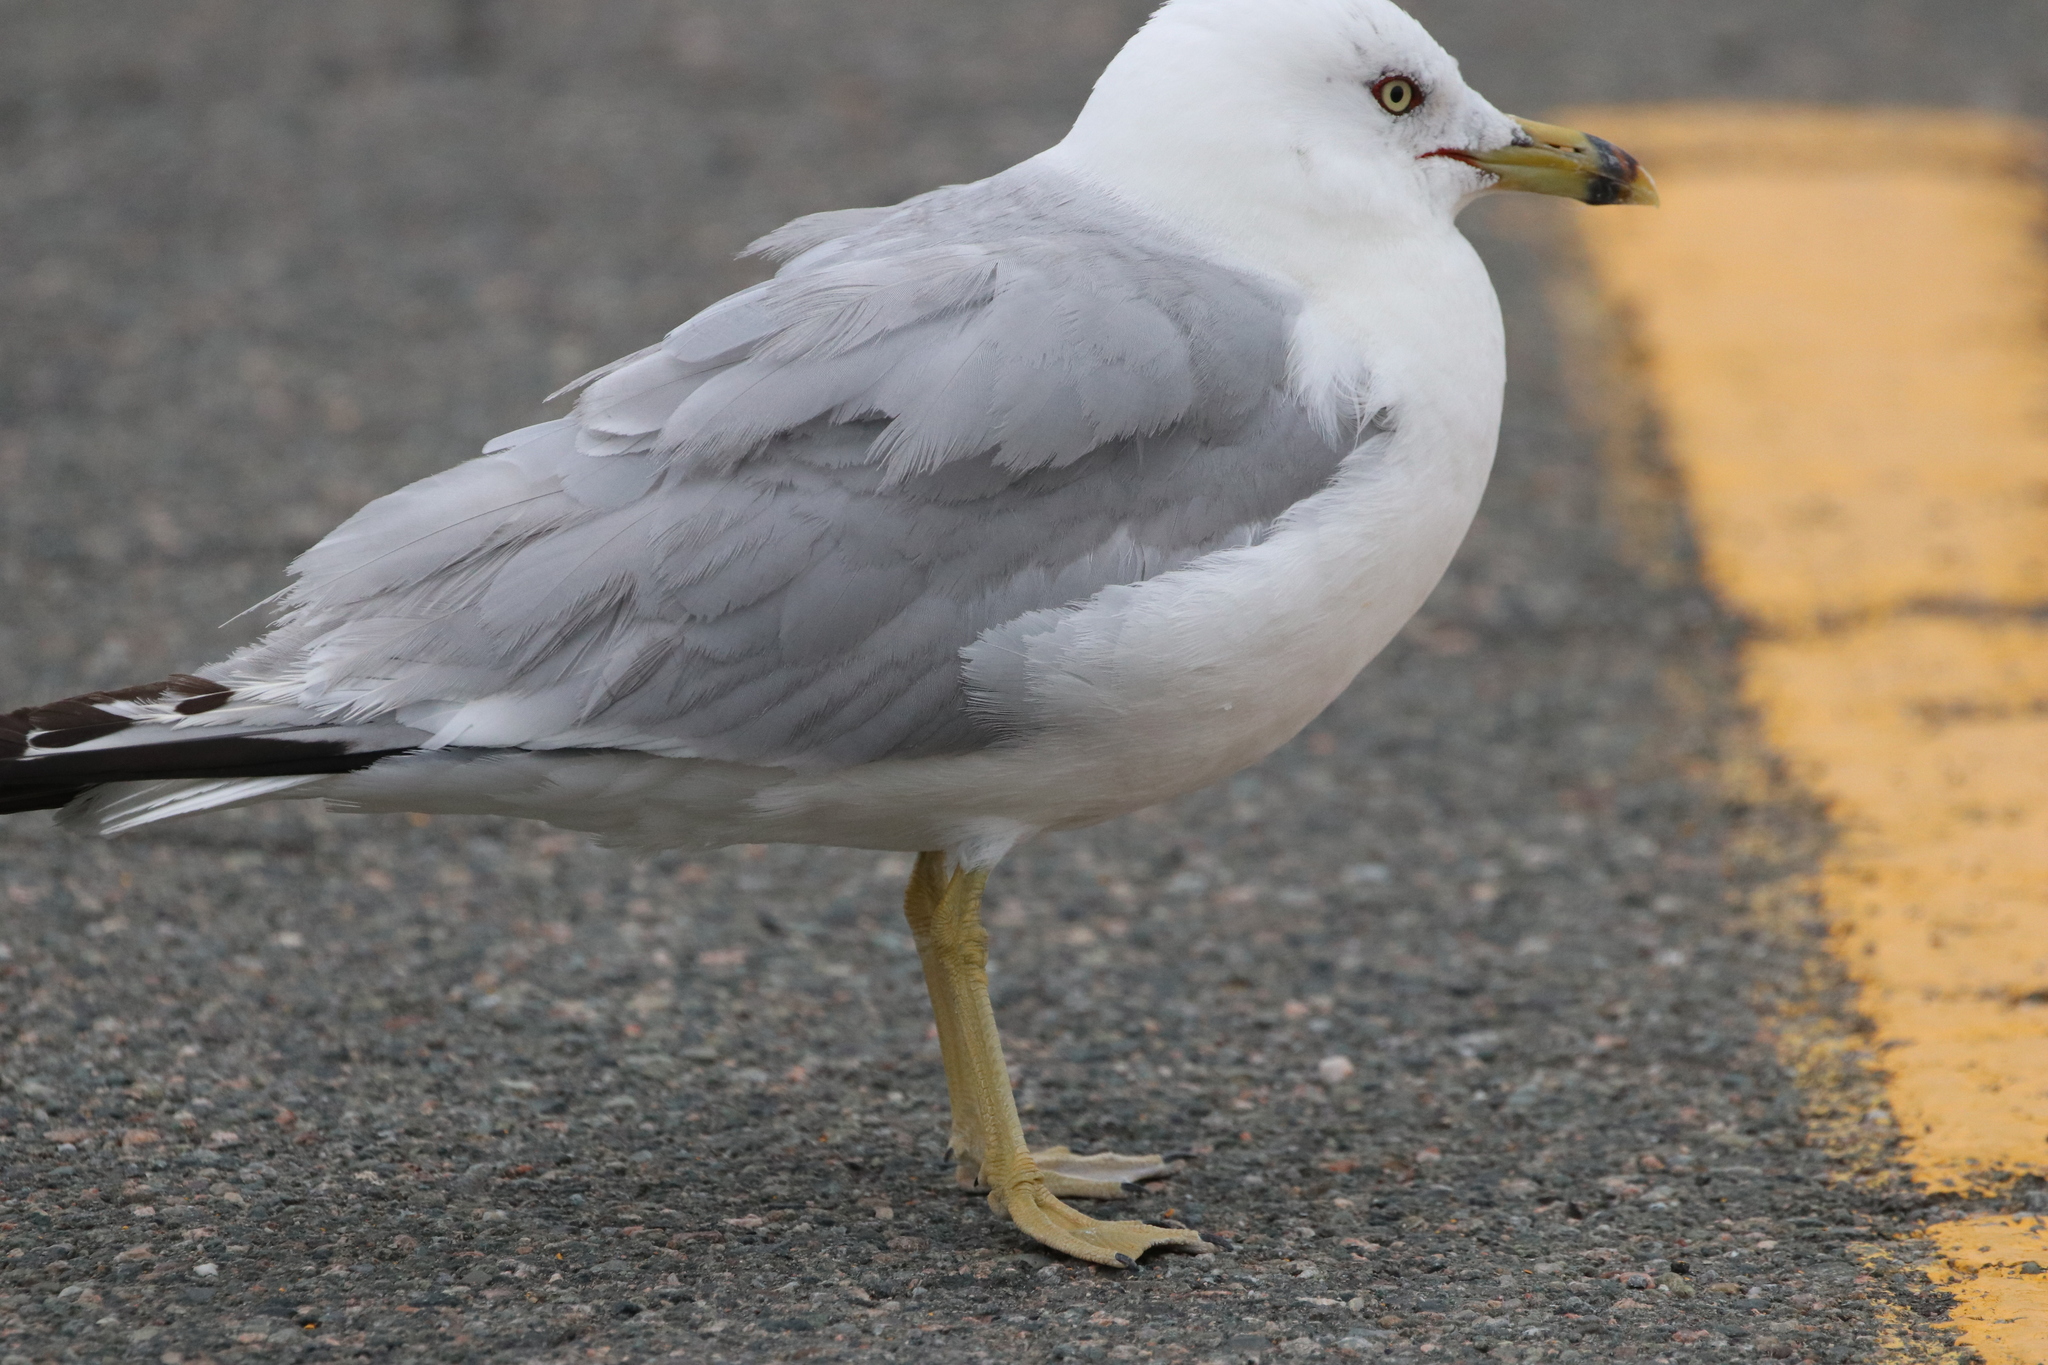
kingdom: Animalia
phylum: Chordata
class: Aves
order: Charadriiformes
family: Laridae
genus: Larus
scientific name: Larus delawarensis
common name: Ring-billed gull
